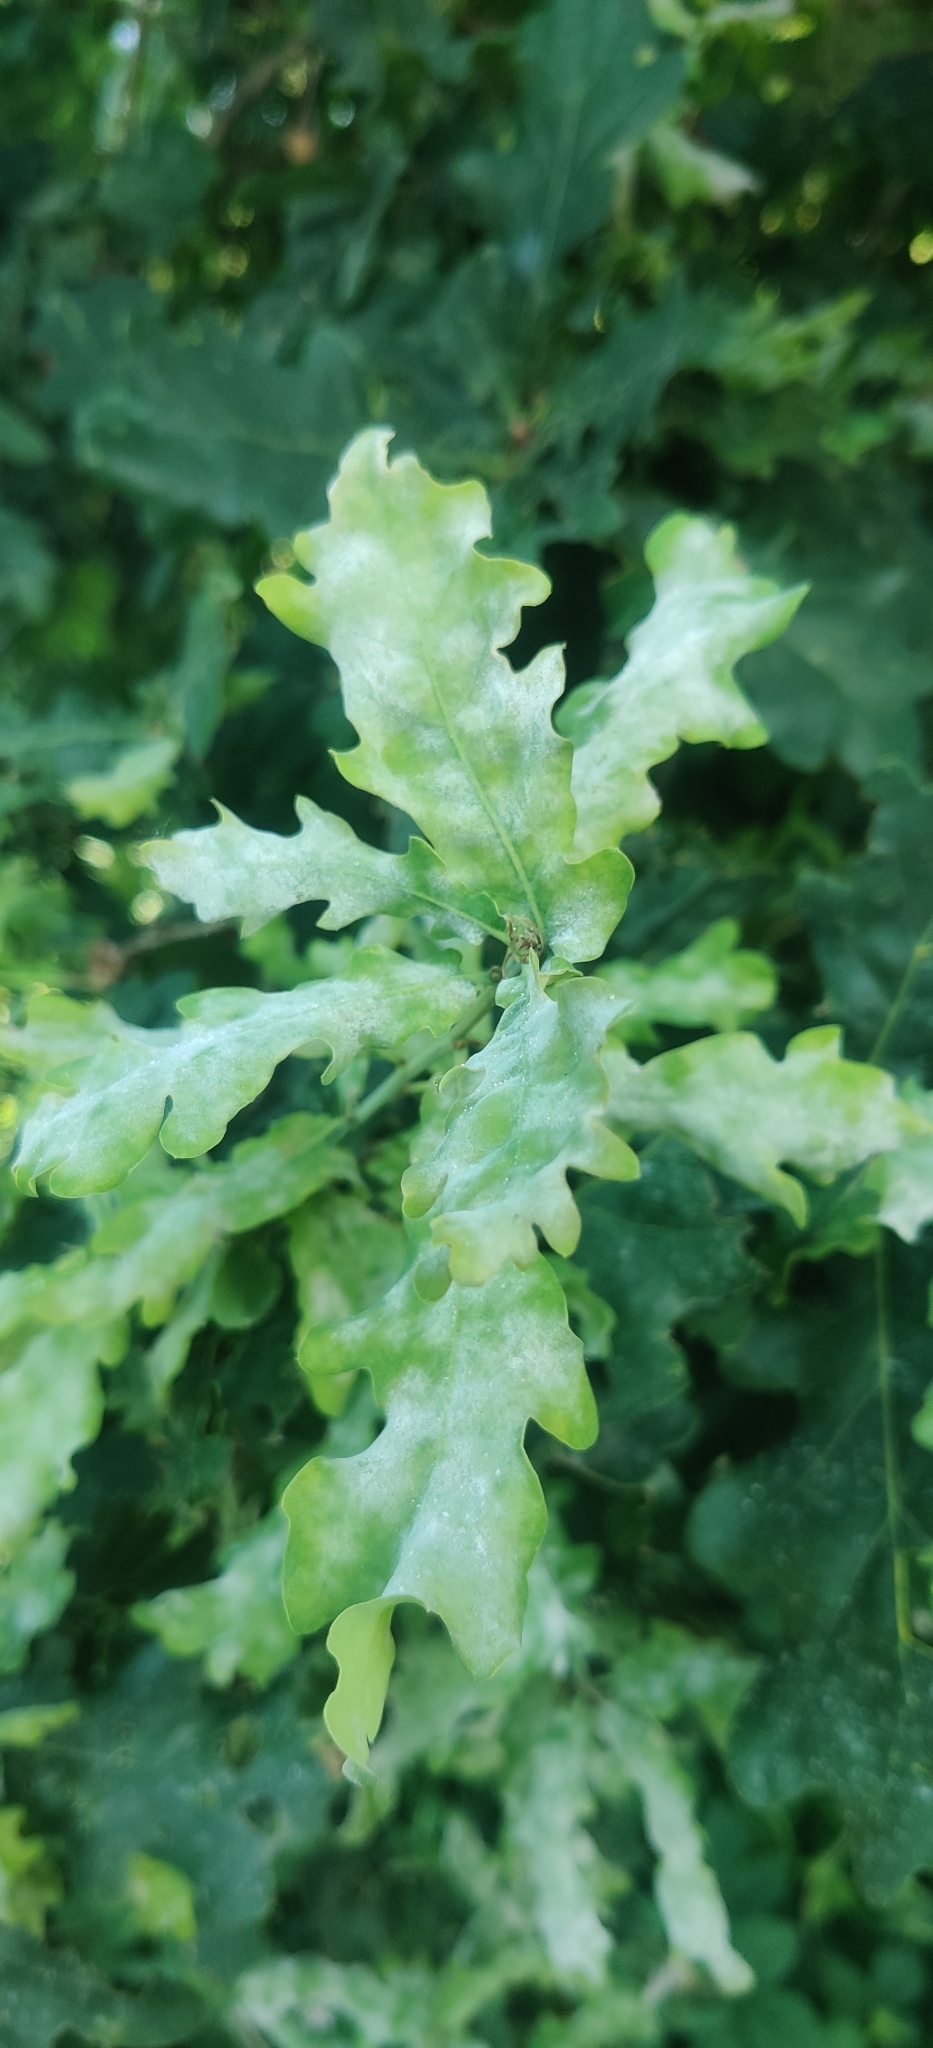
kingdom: Fungi
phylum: Ascomycota
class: Leotiomycetes
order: Helotiales
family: Erysiphaceae
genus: Erysiphe
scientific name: Erysiphe
